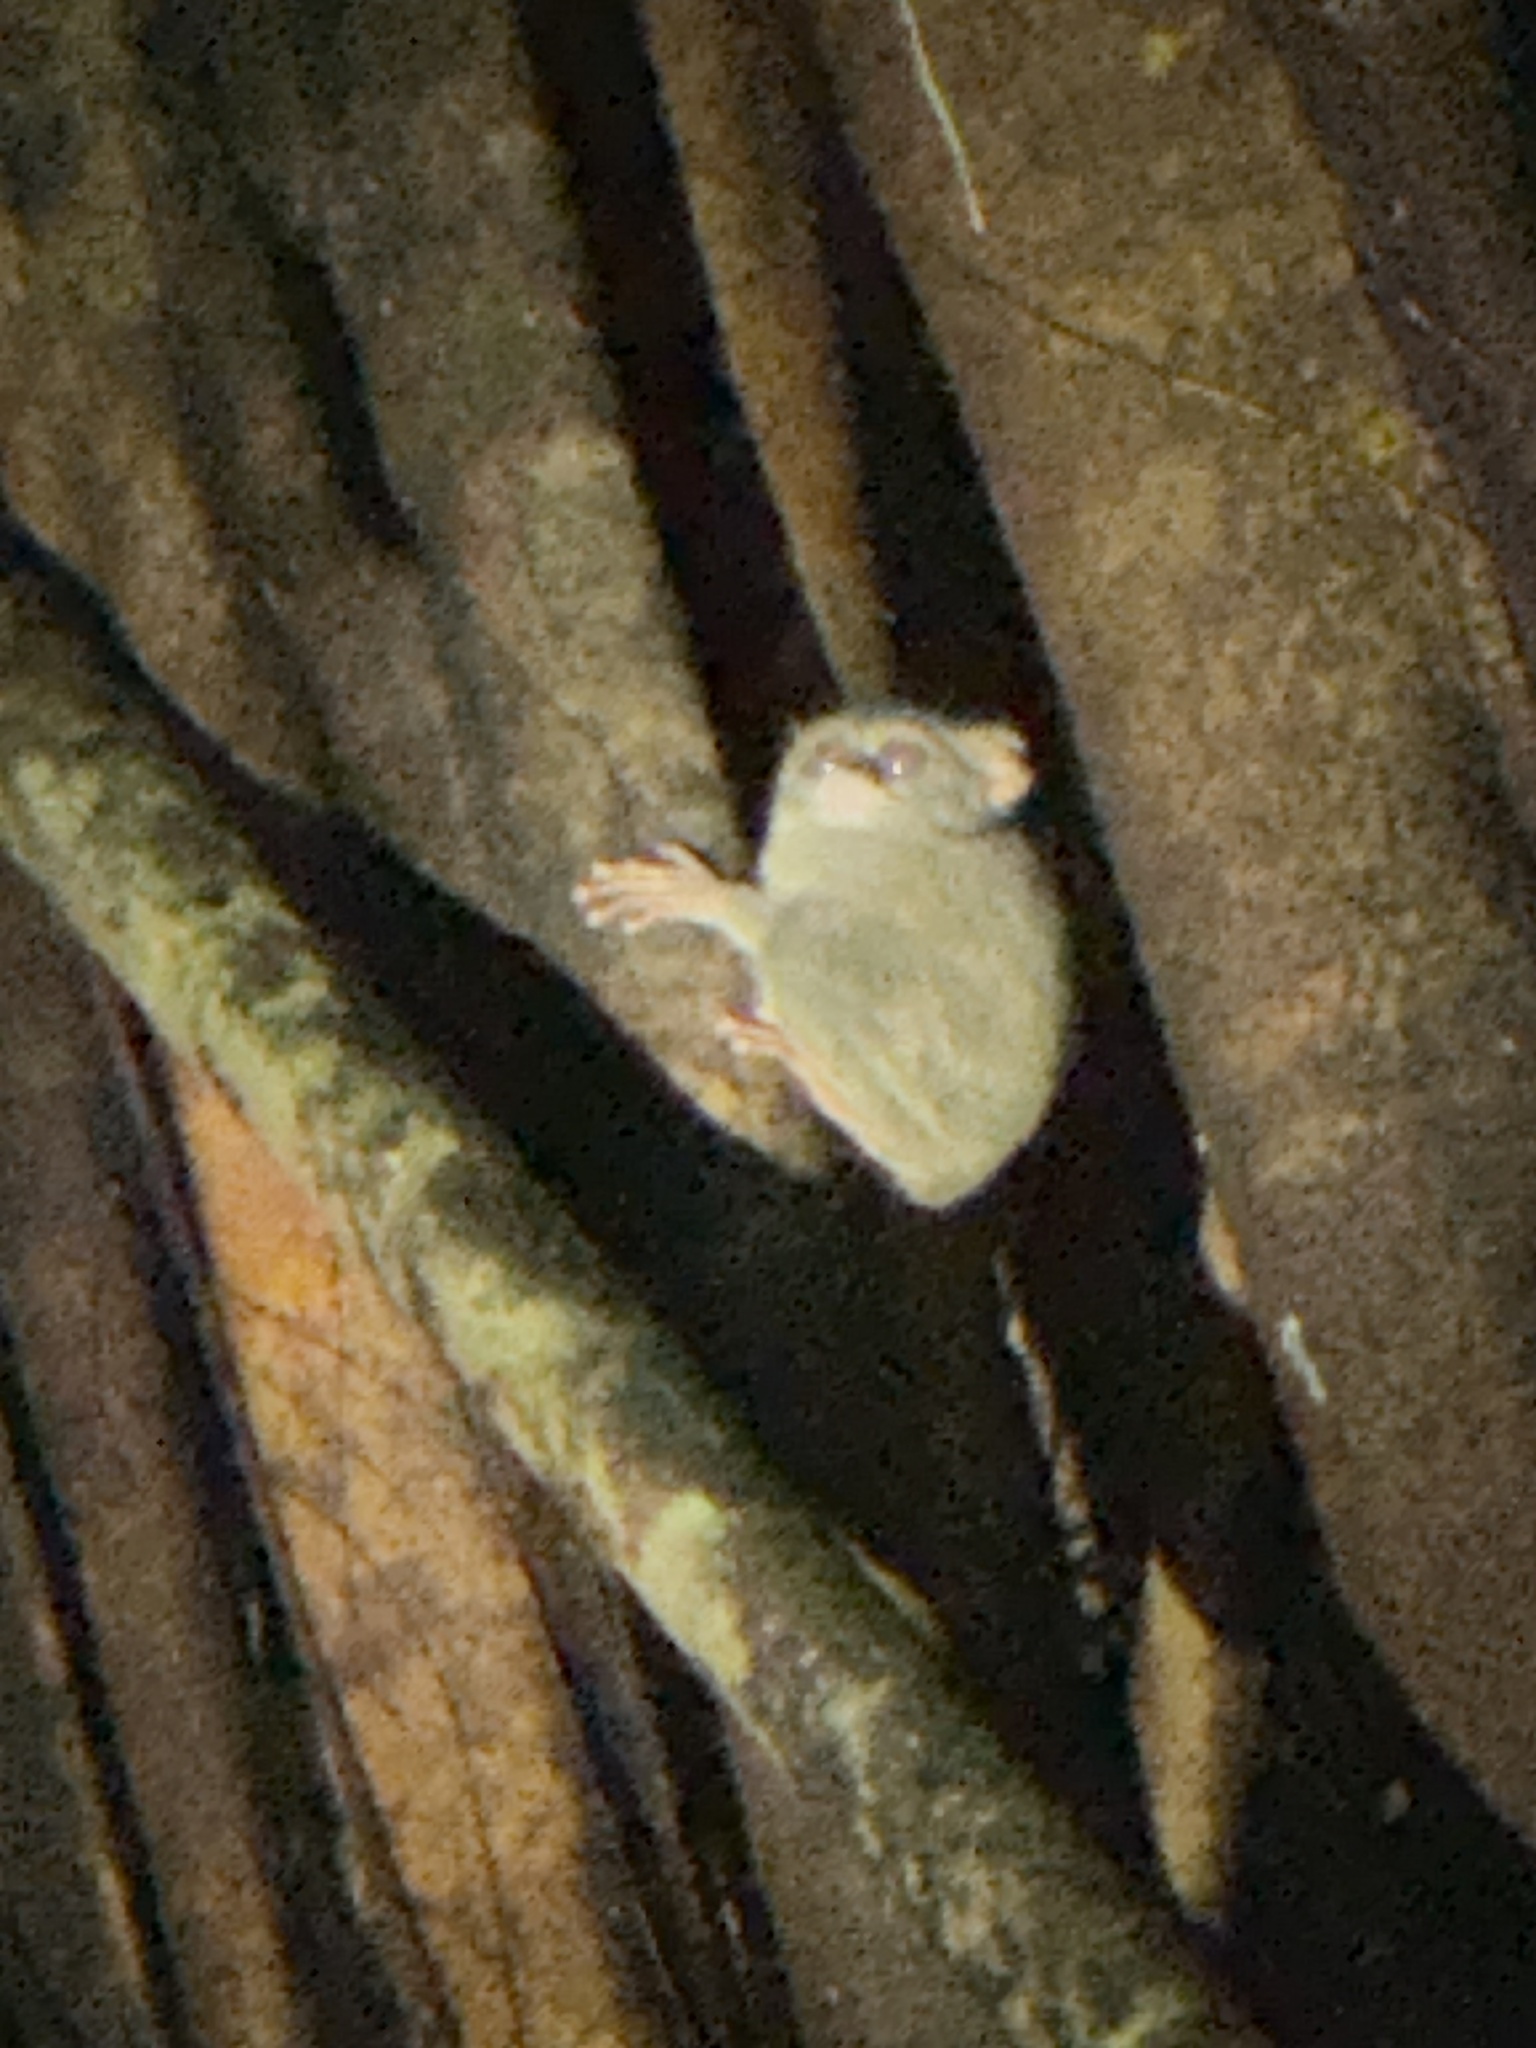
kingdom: Animalia
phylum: Chordata
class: Mammalia
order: Primates
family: Tarsiidae
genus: Tarsius
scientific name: Tarsius spectrumgurskyae
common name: Gursky's spectral tarsier
